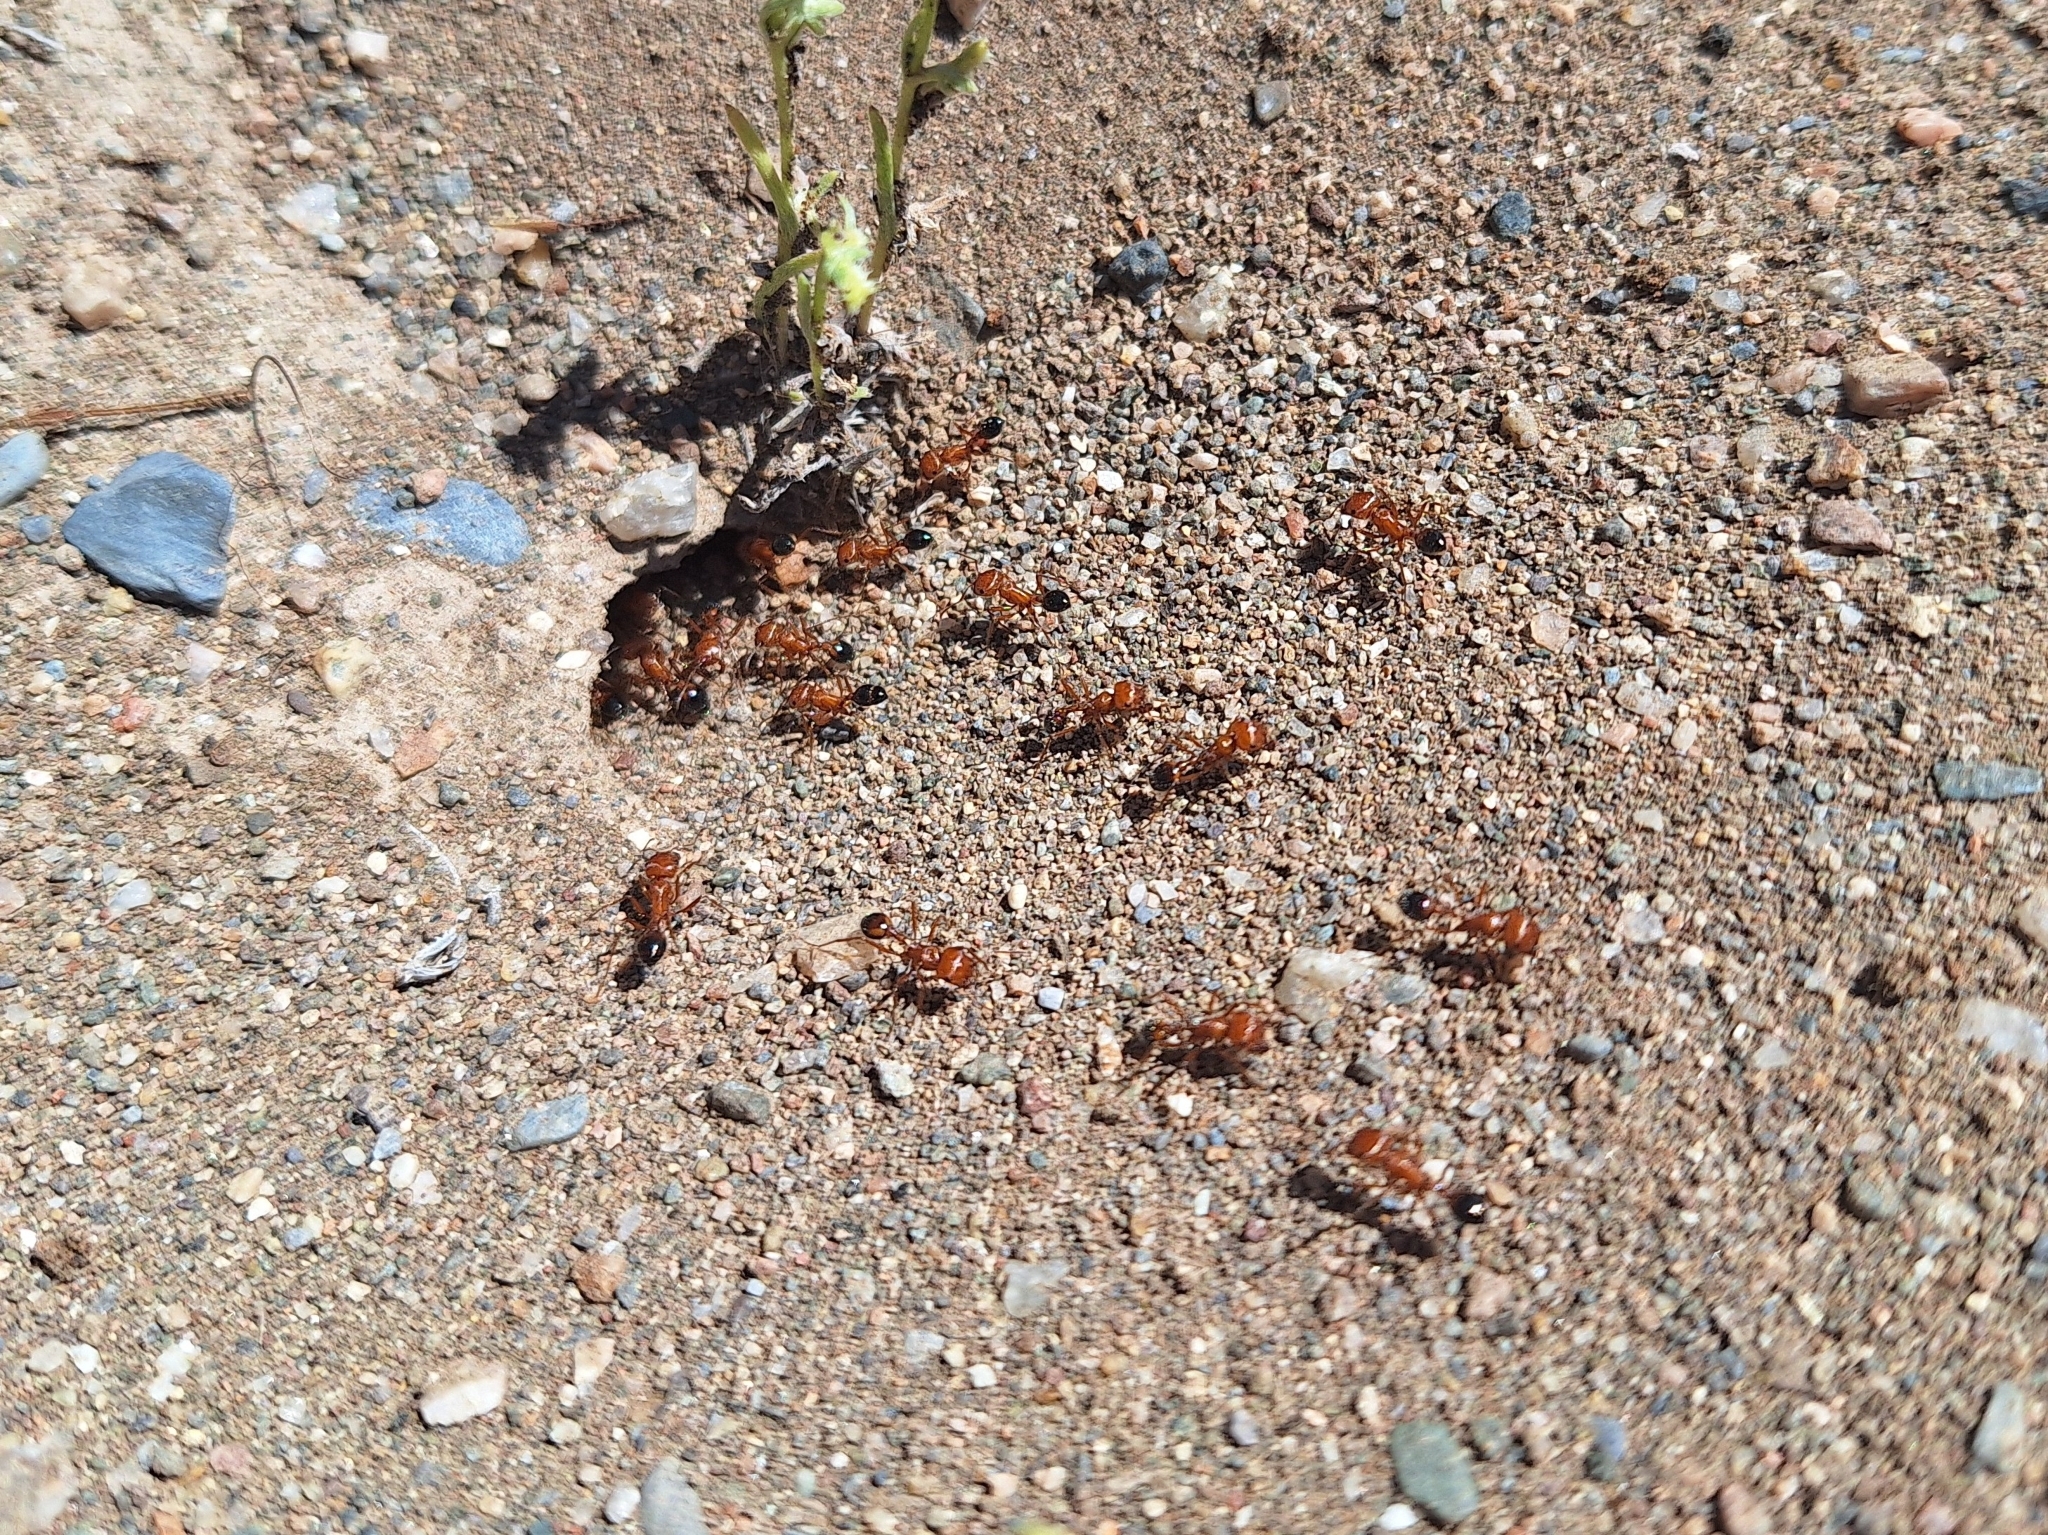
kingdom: Animalia
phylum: Arthropoda
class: Insecta
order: Hymenoptera
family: Formicidae
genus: Pogonomyrmex
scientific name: Pogonomyrmex californicus
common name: California harvester ant
